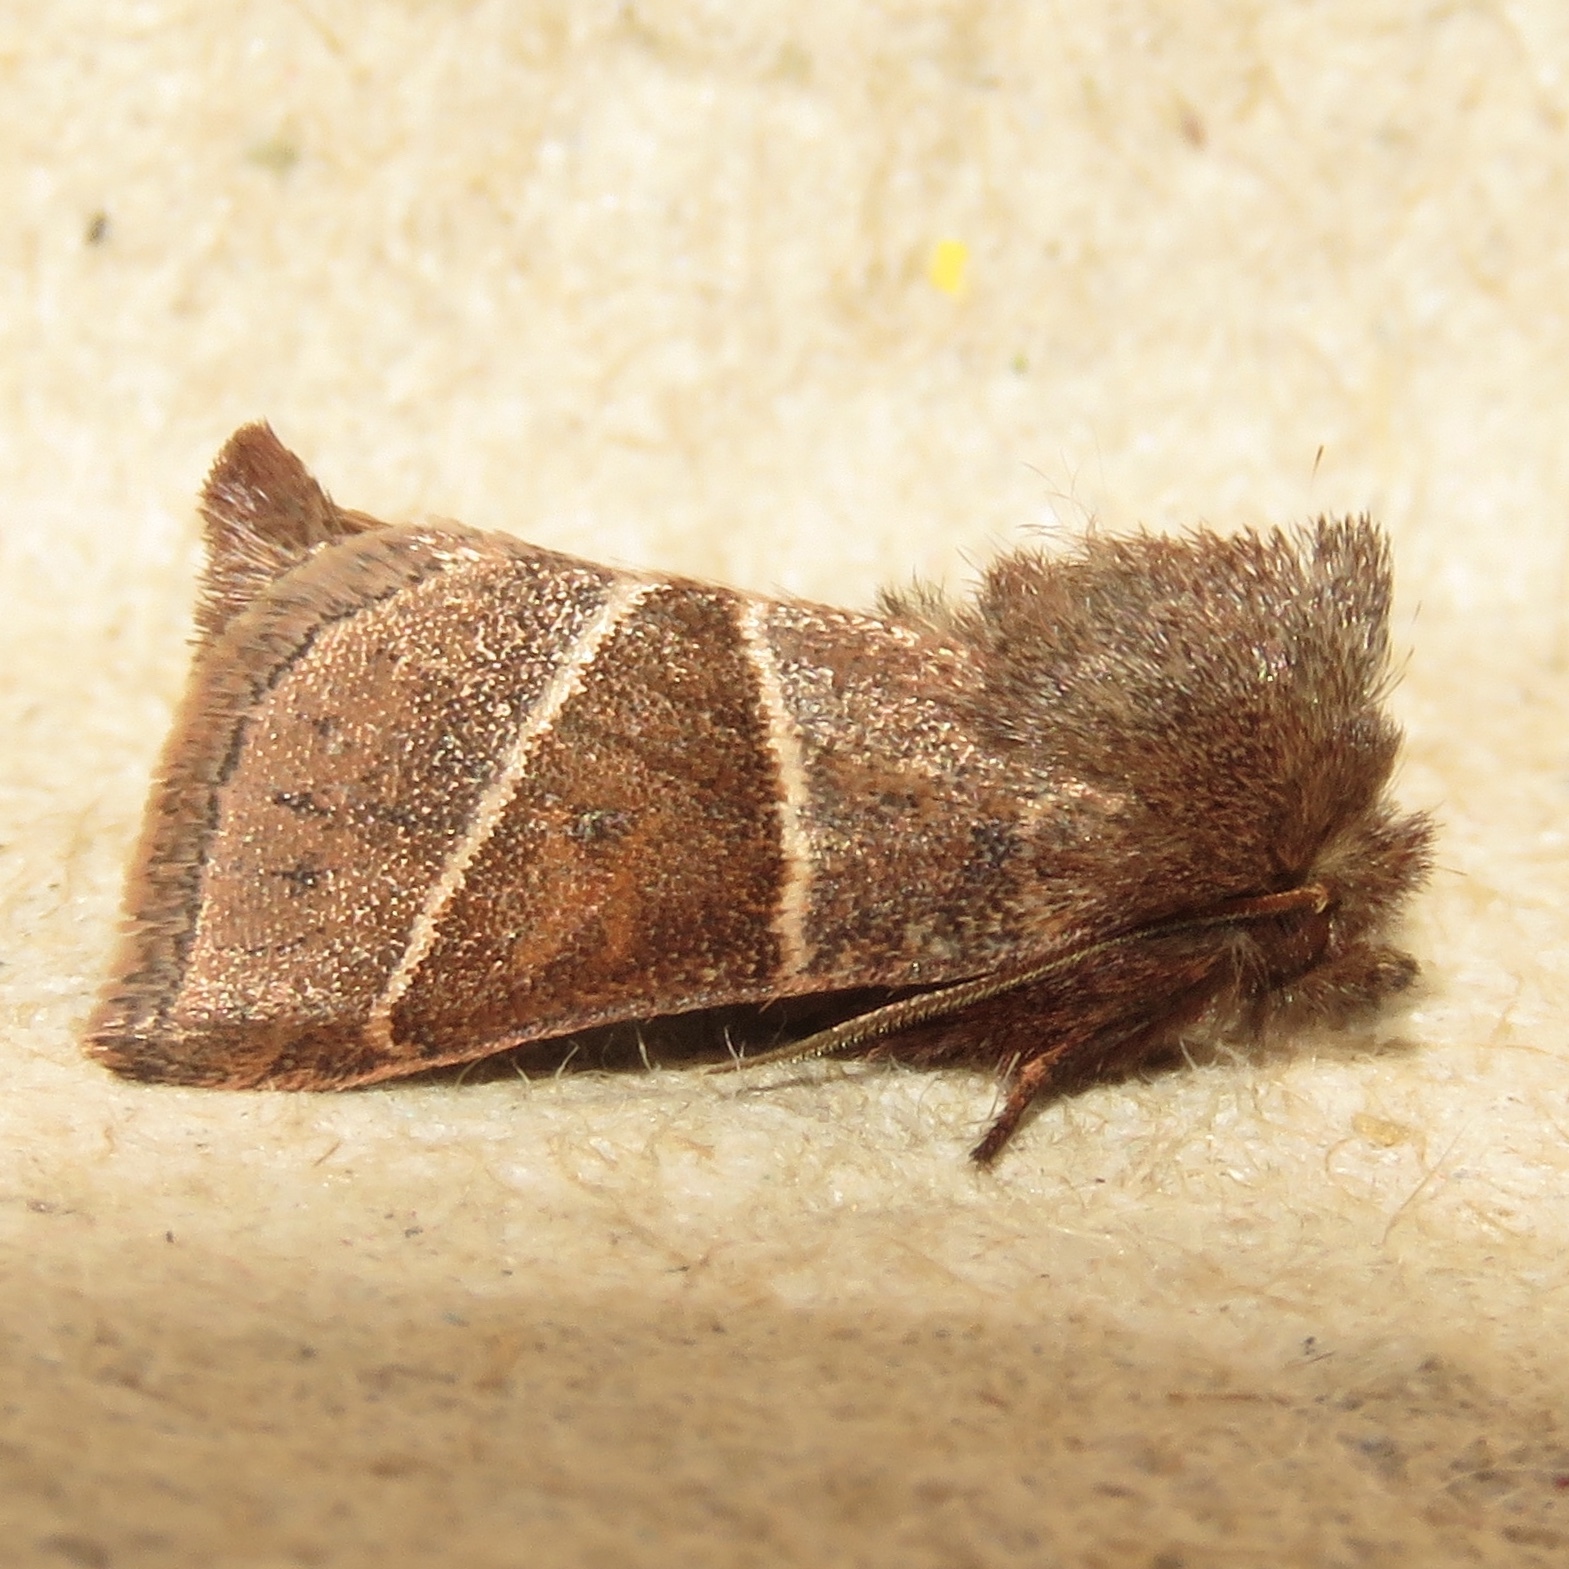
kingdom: Animalia
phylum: Arthropoda
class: Insecta
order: Lepidoptera
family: Noctuidae
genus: Lemmeria
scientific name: Lemmeria digitalis
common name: Fingered lemmeria moth
